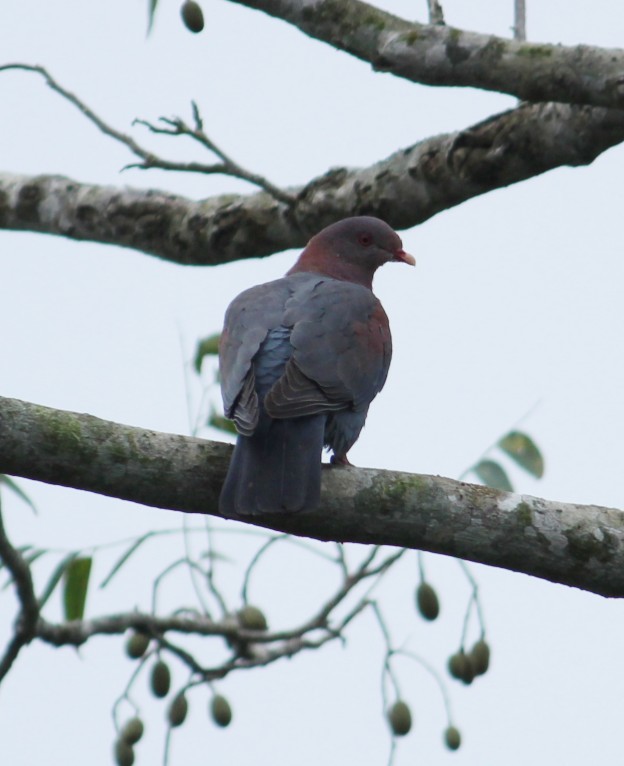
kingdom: Animalia
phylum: Chordata
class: Aves
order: Columbiformes
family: Columbidae
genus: Patagioenas
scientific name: Patagioenas flavirostris
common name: Red-billed pigeon
